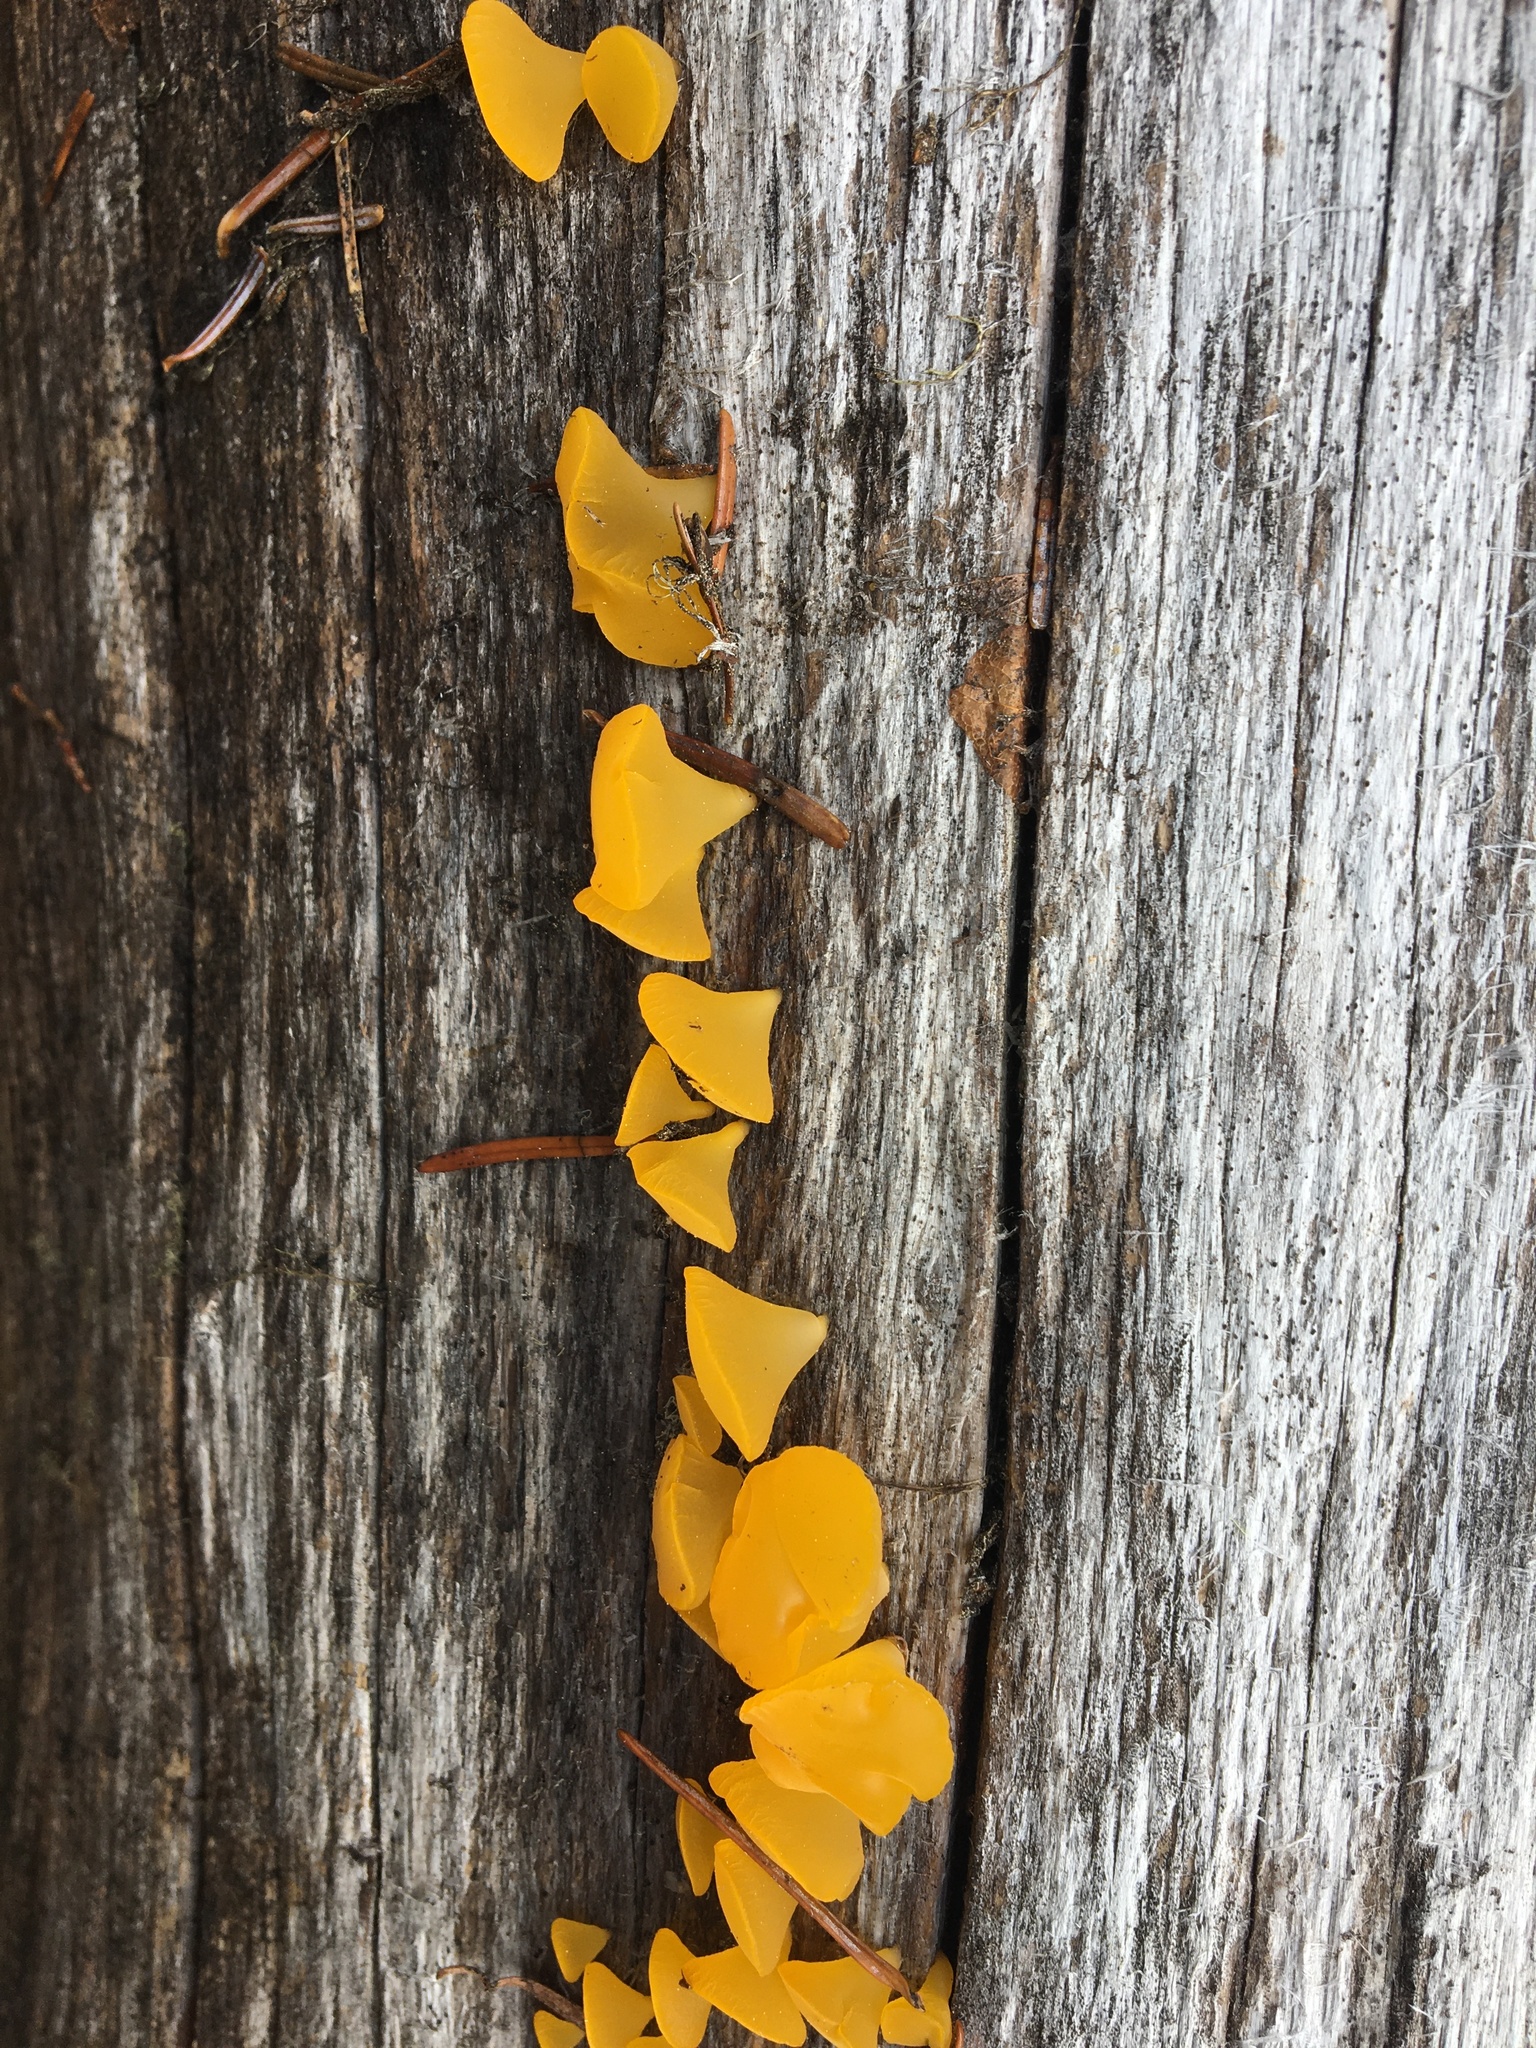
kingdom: Fungi
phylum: Basidiomycota
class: Dacrymycetes
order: Dacrymycetales
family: Dacrymycetaceae
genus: Guepiniopsis
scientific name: Guepiniopsis alpina
